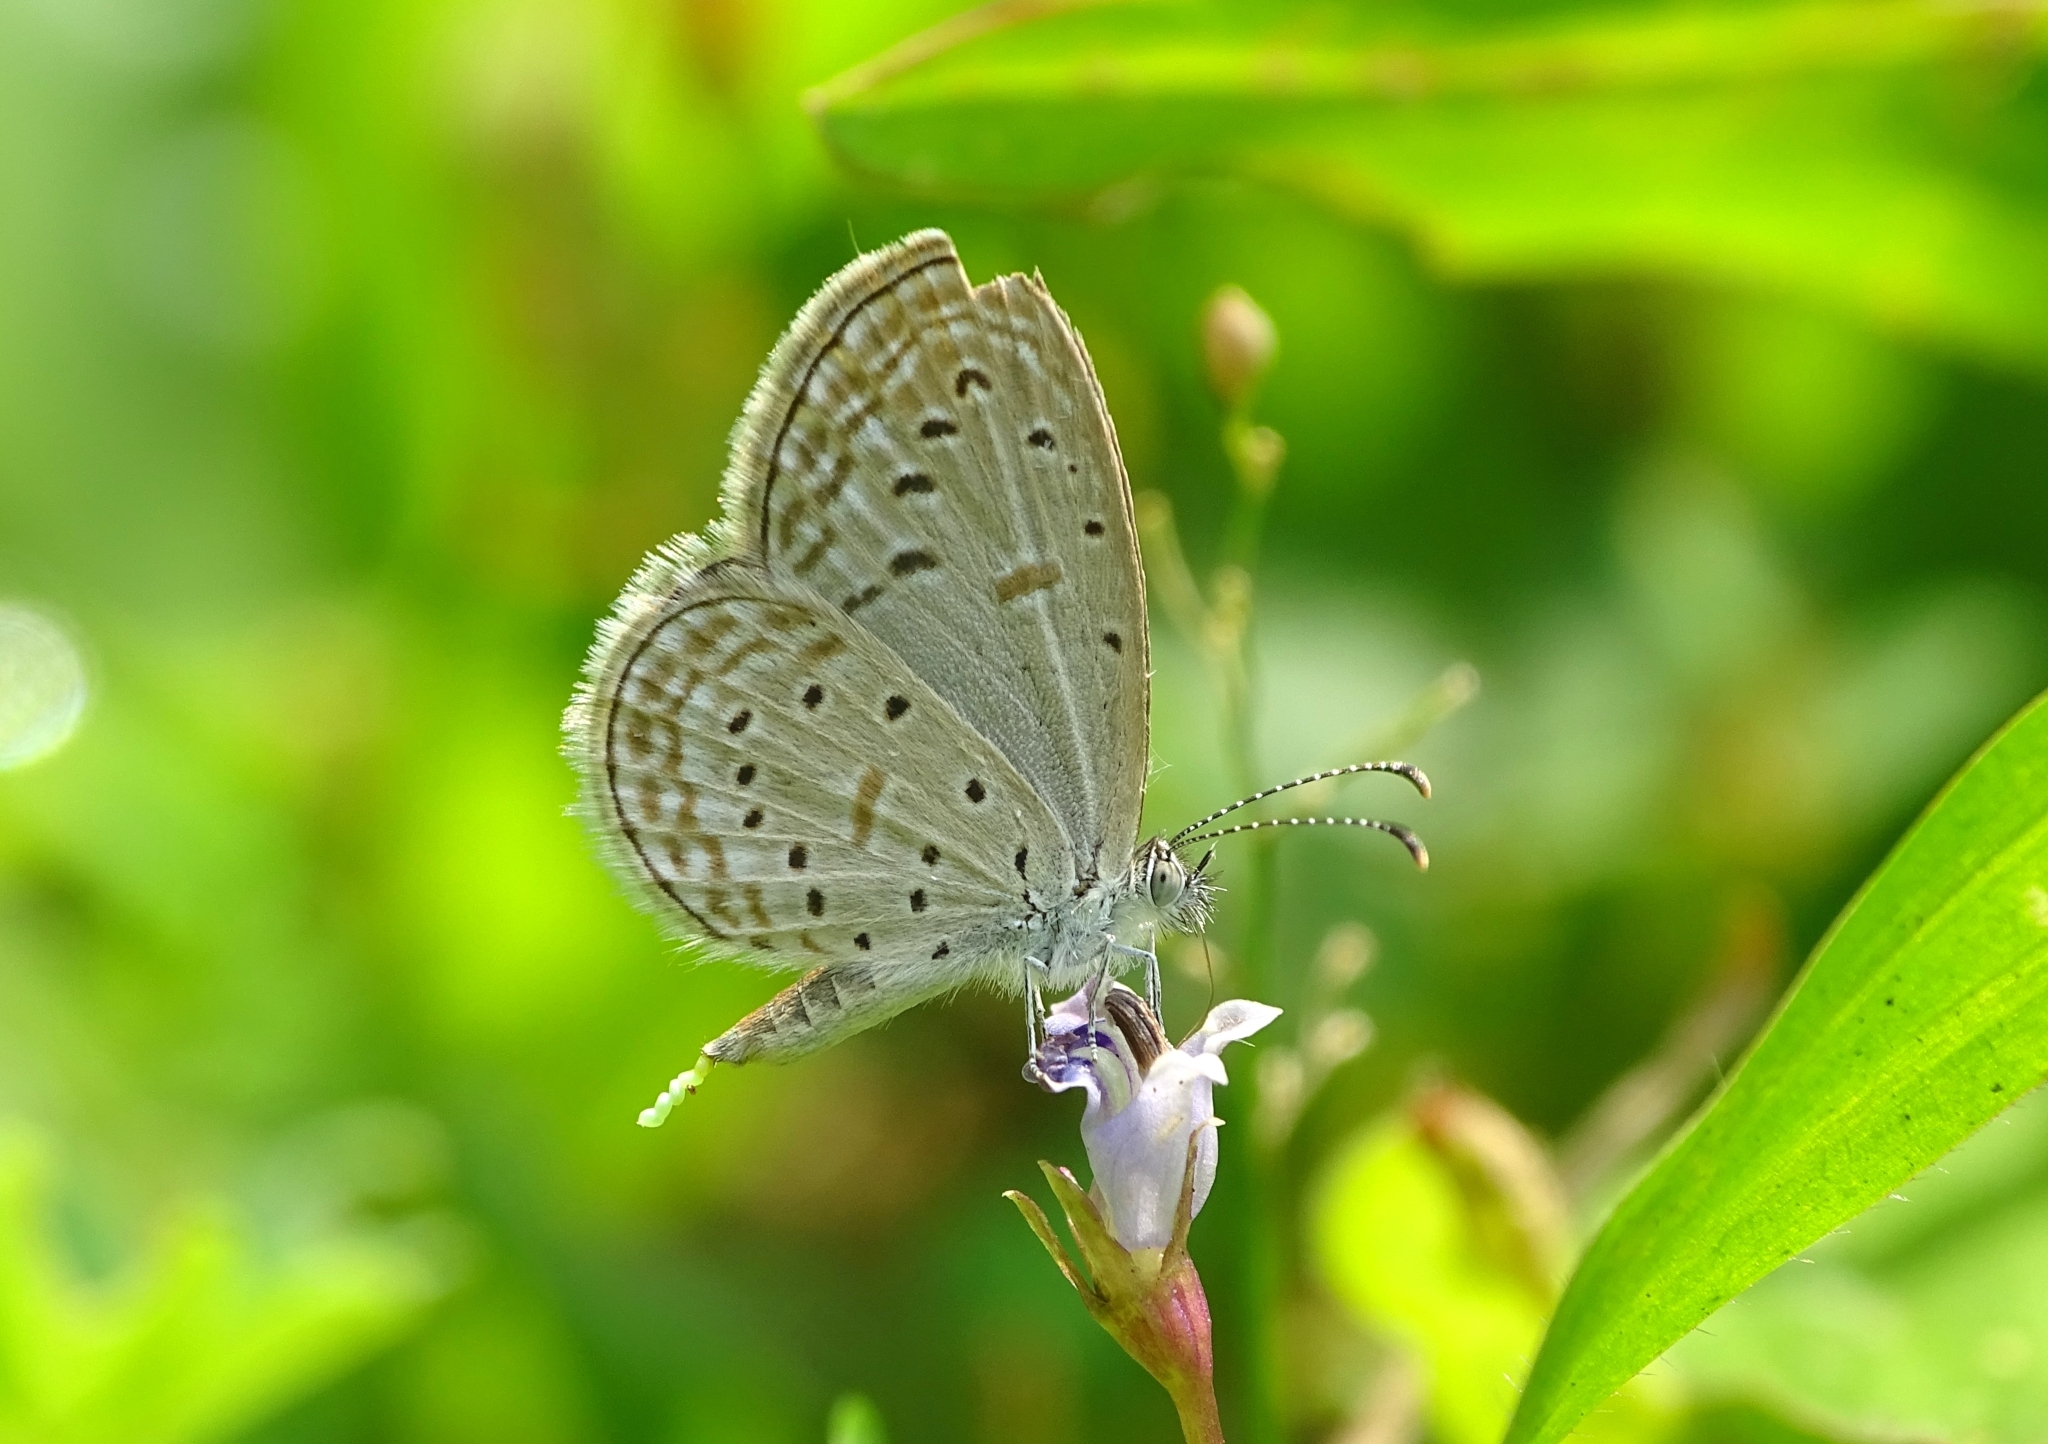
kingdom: Animalia
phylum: Arthropoda
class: Insecta
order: Lepidoptera
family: Lycaenidae
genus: Zizula
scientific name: Zizula hylax
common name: Gaika blue
